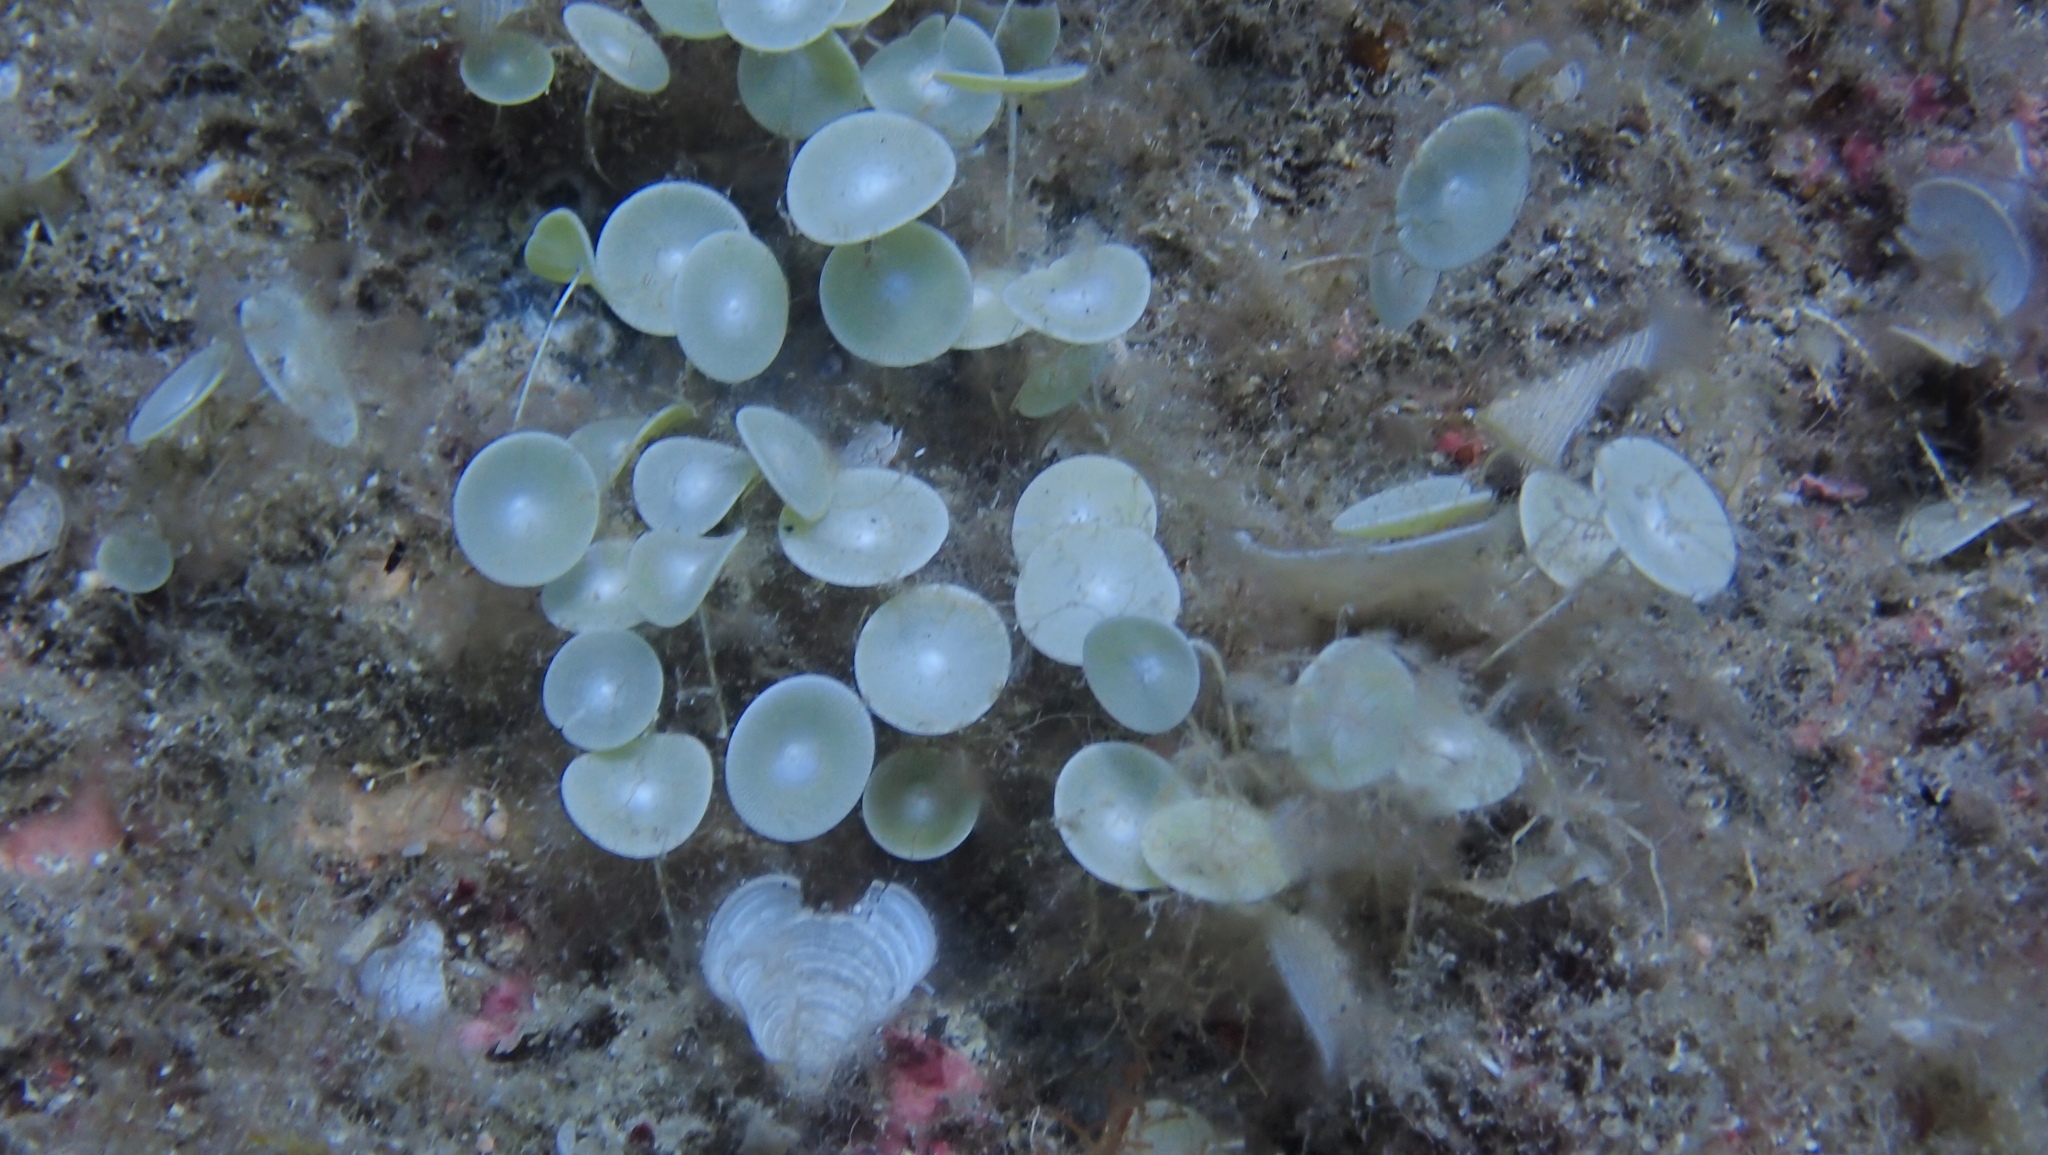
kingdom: Plantae
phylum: Chlorophyta
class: Ulvophyceae
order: Dasycladales
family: Polyphysaceae
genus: Acetabularia
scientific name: Acetabularia acetabulum
